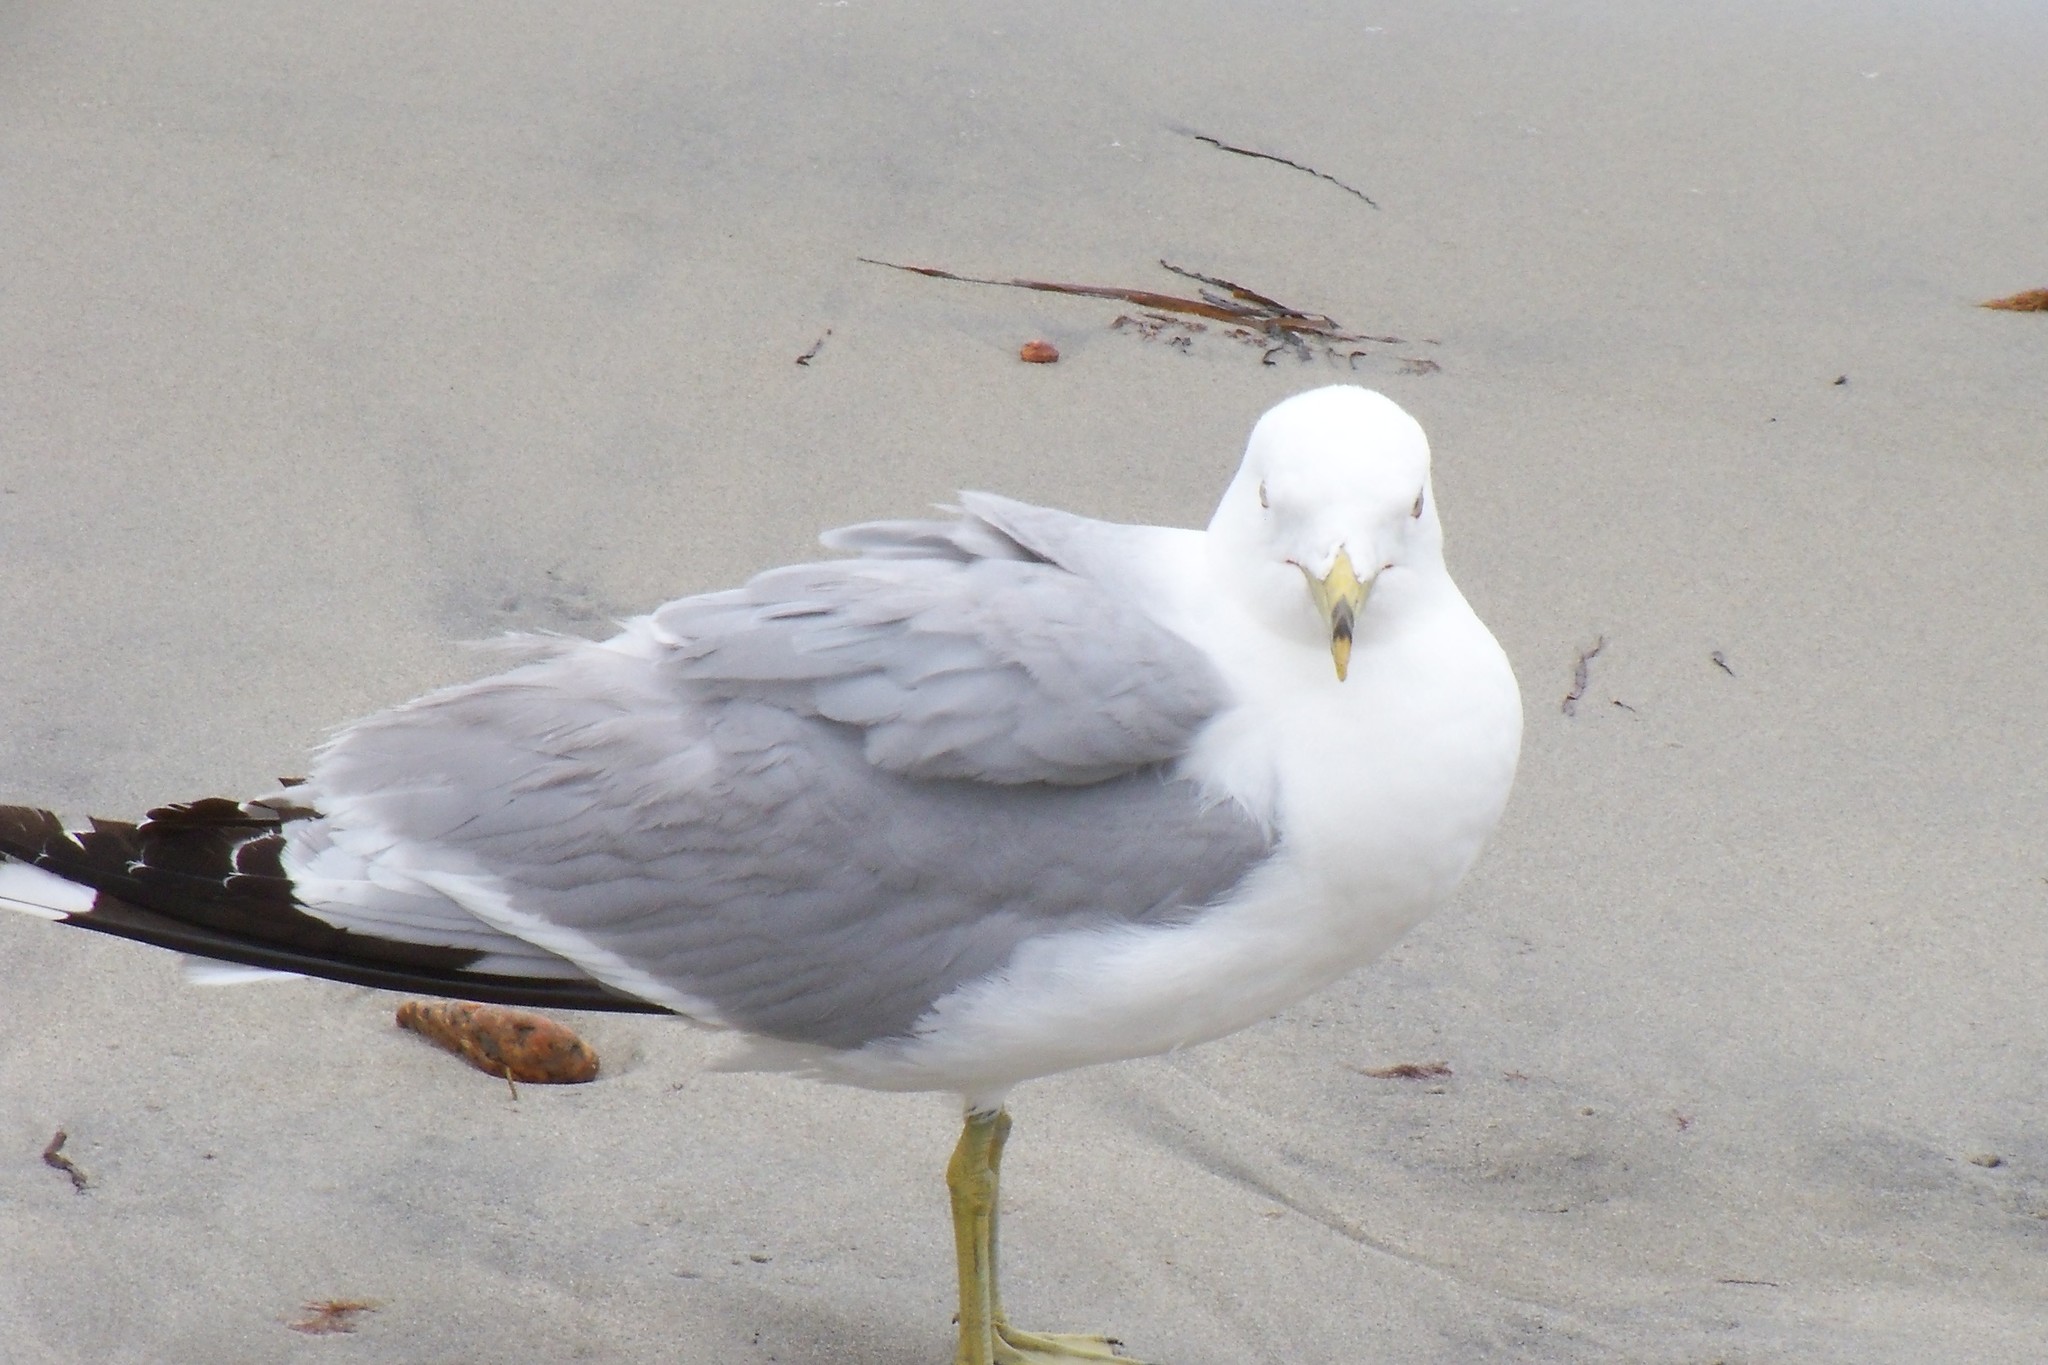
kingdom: Animalia
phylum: Chordata
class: Aves
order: Charadriiformes
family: Laridae
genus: Larus
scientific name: Larus delawarensis
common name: Ring-billed gull
